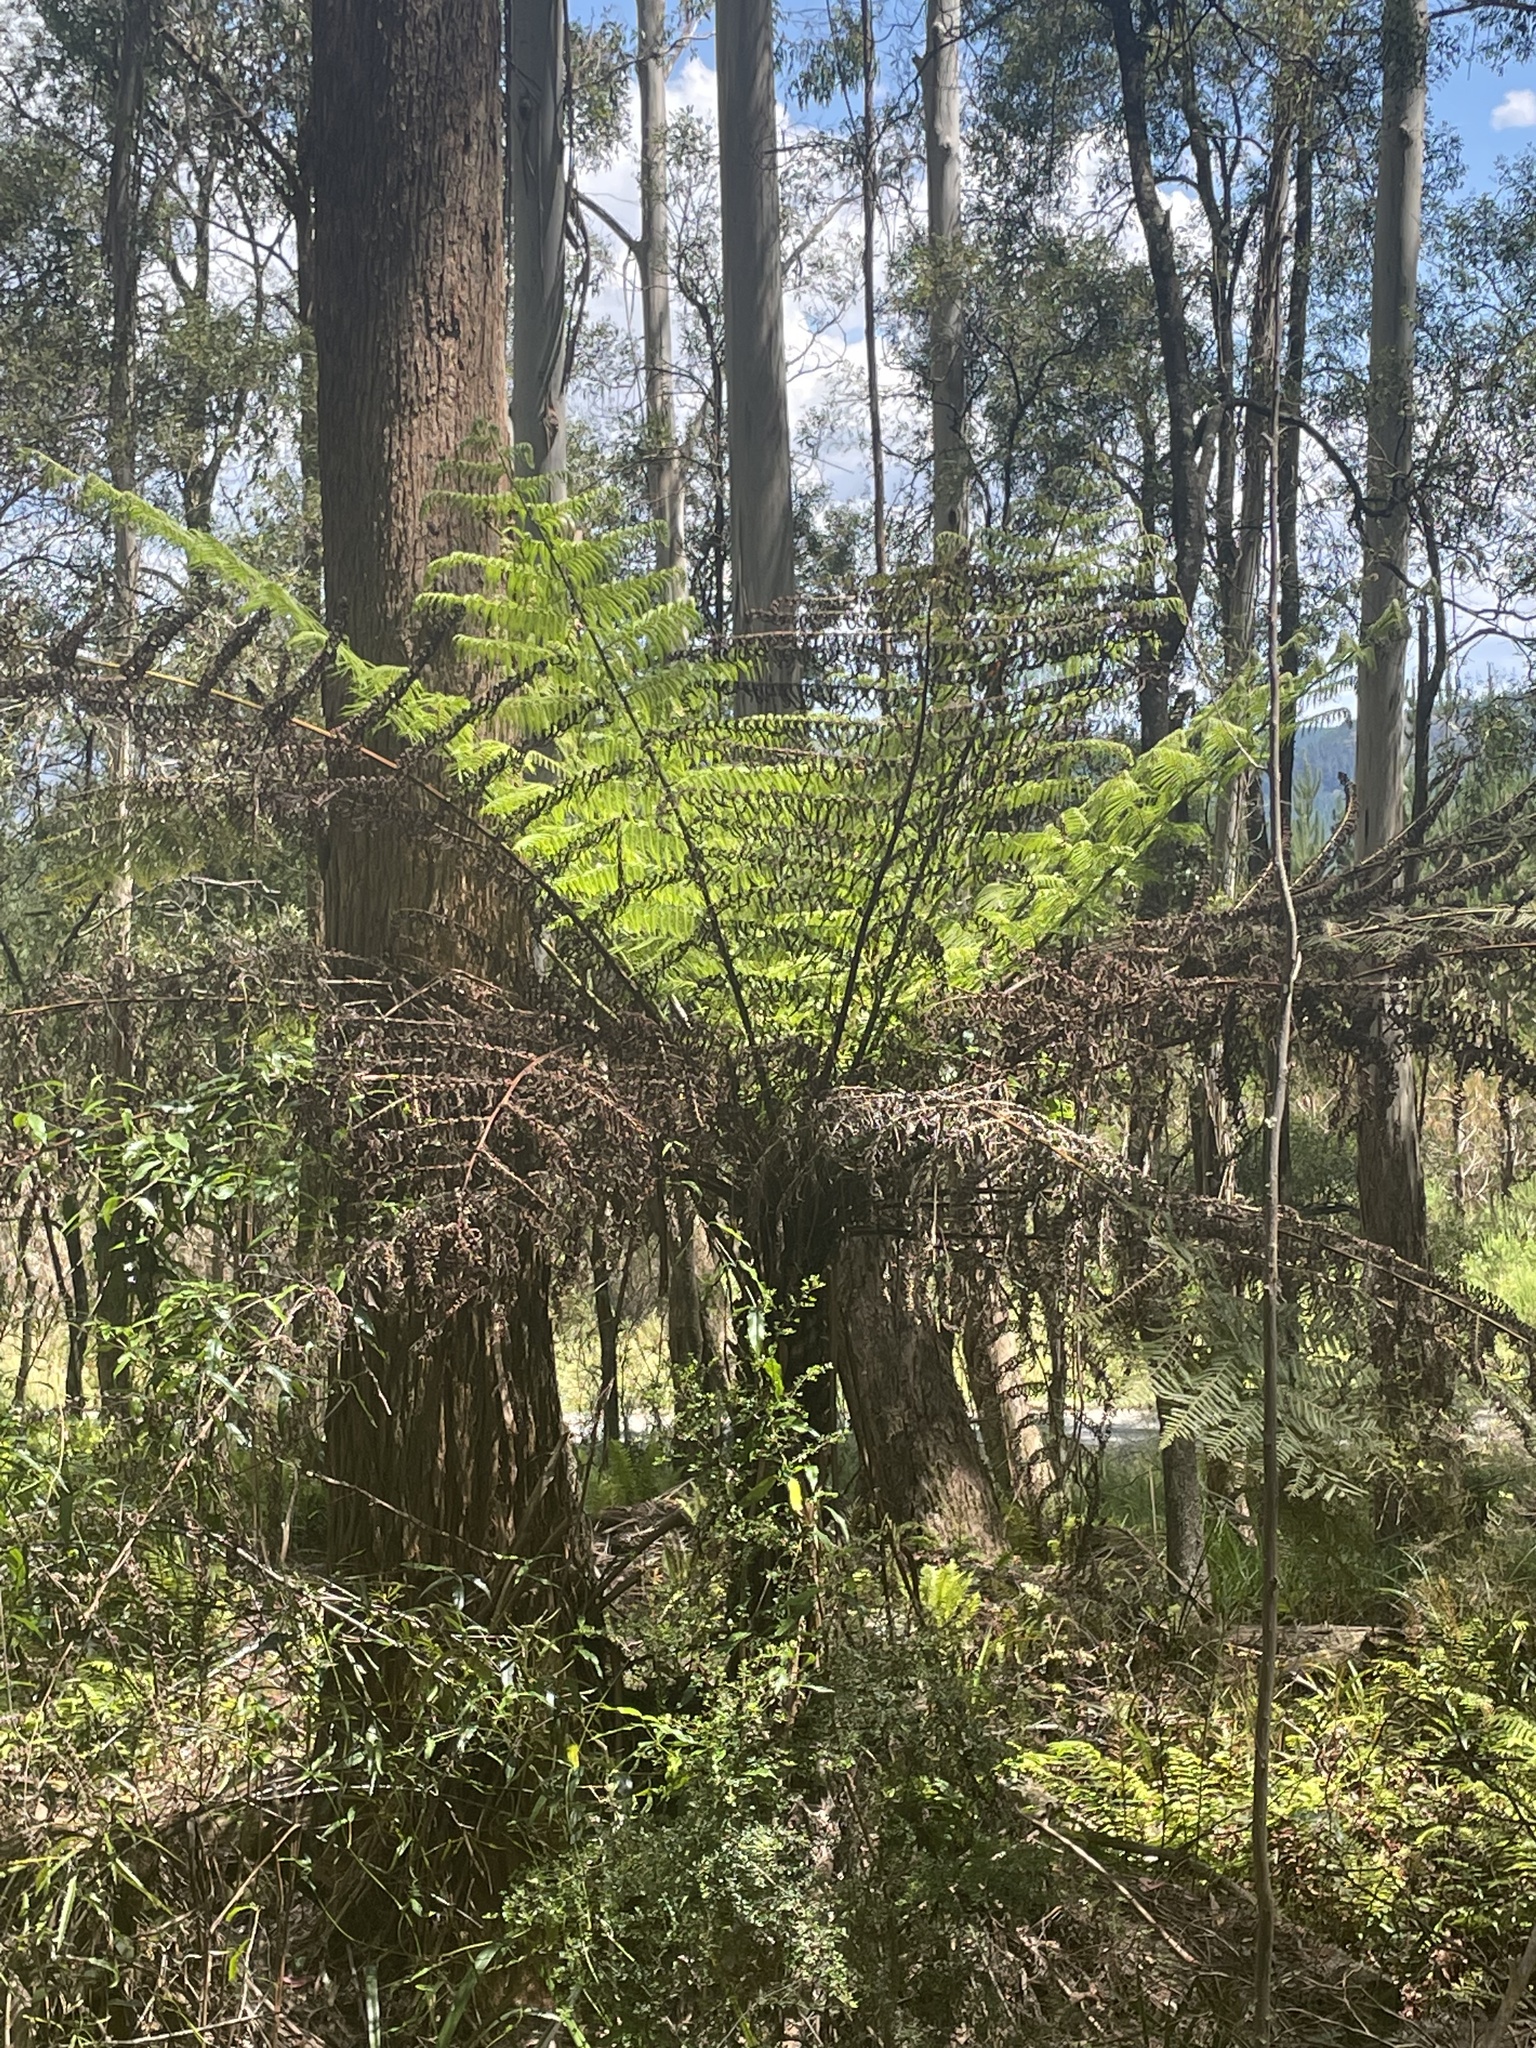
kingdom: Plantae
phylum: Tracheophyta
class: Polypodiopsida
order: Cyatheales
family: Cyatheaceae
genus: Alsophila
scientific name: Alsophila australis
